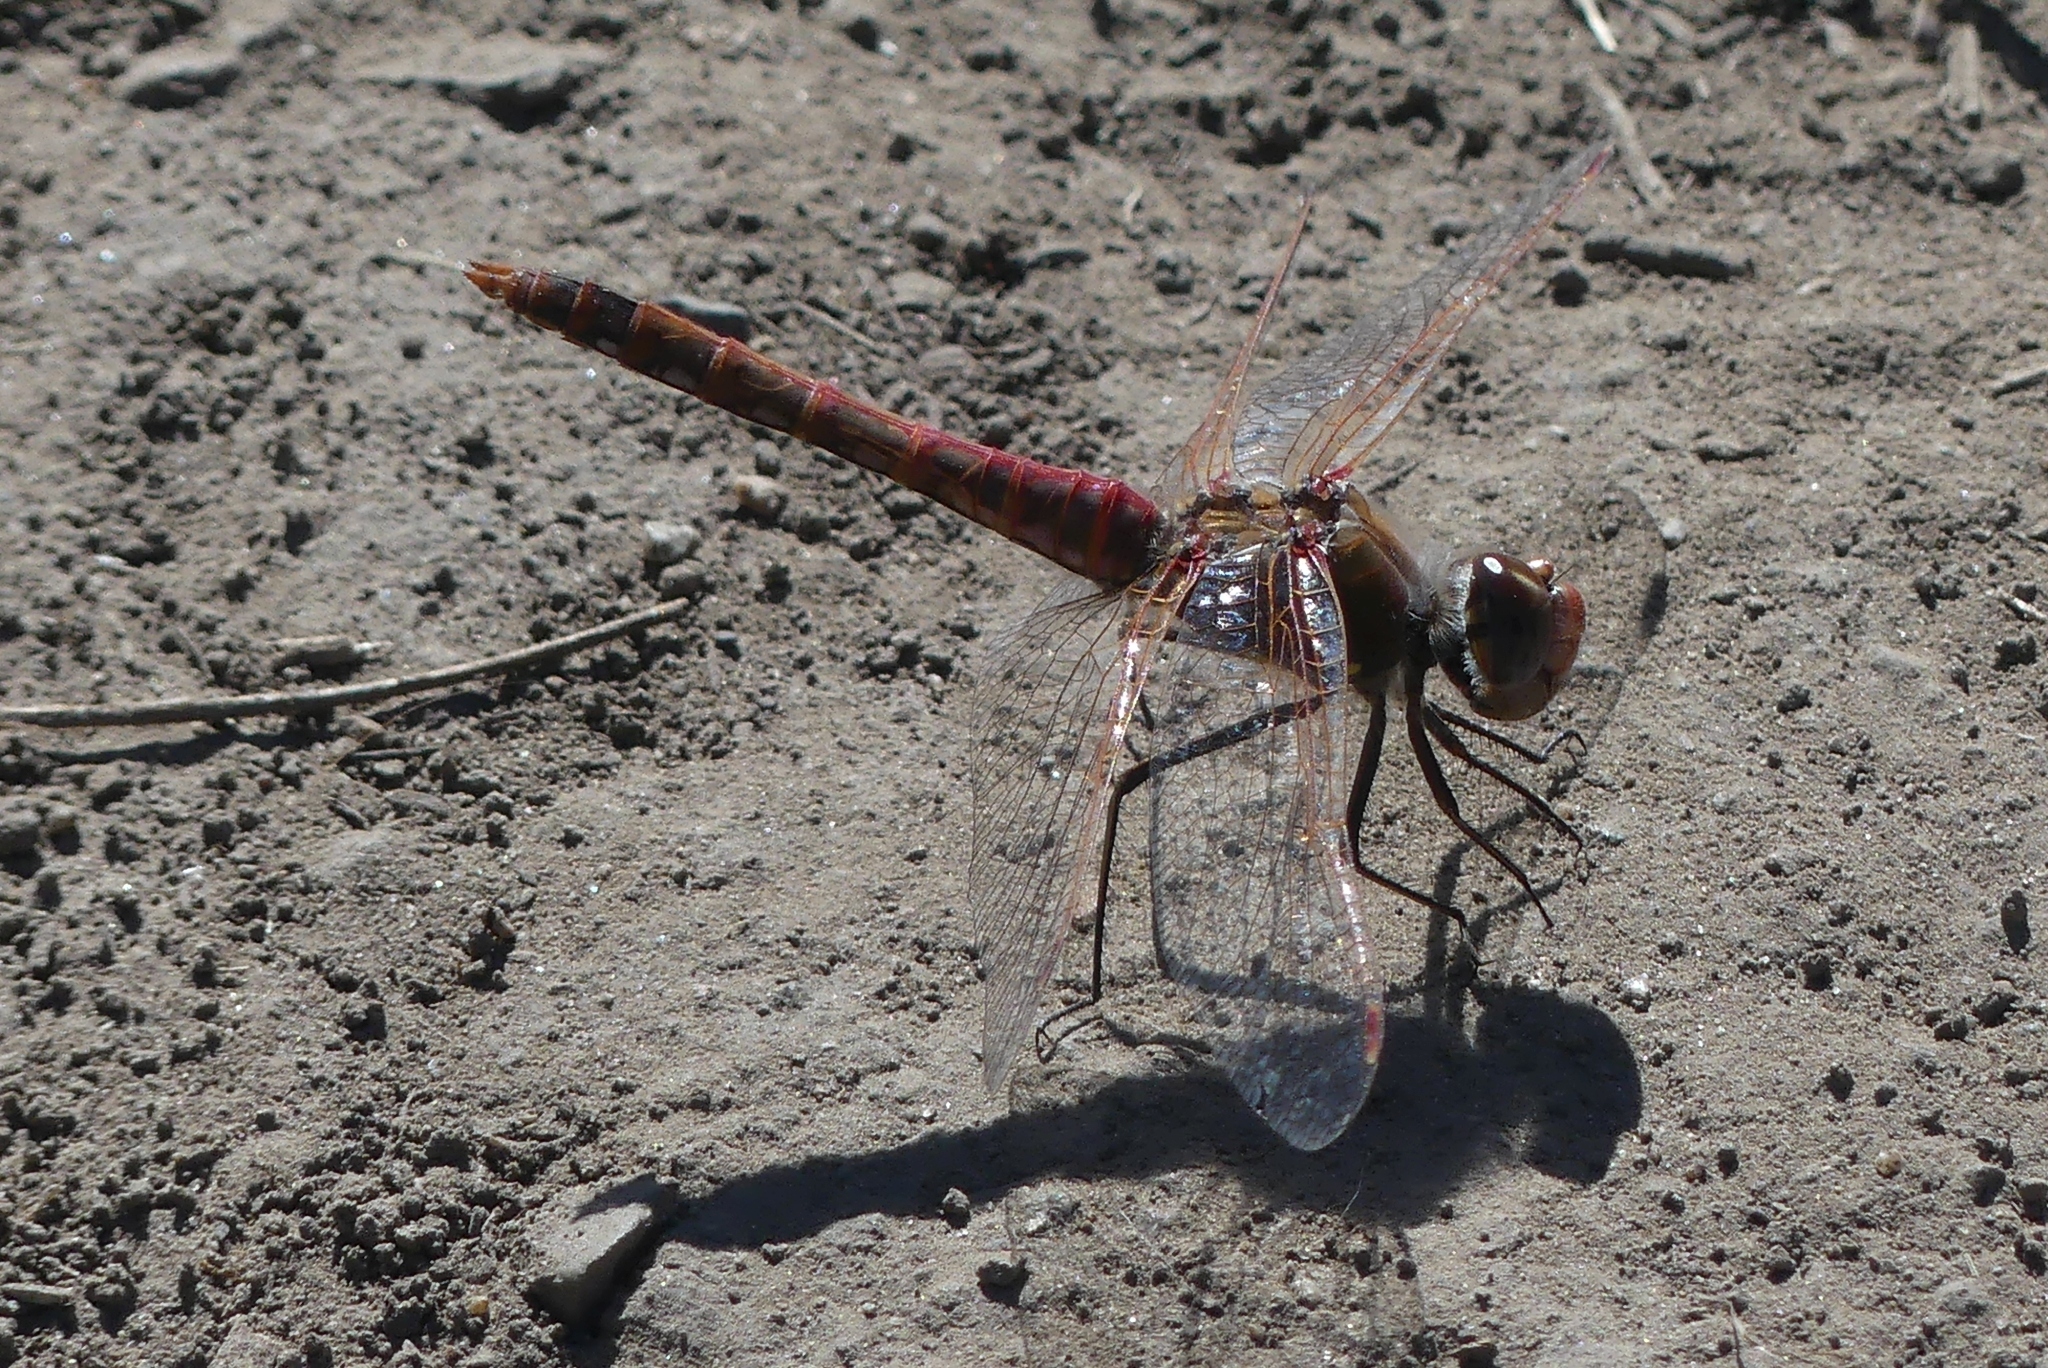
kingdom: Animalia
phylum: Arthropoda
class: Insecta
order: Odonata
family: Libellulidae
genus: Sympetrum
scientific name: Sympetrum corruptum
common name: Variegated meadowhawk
